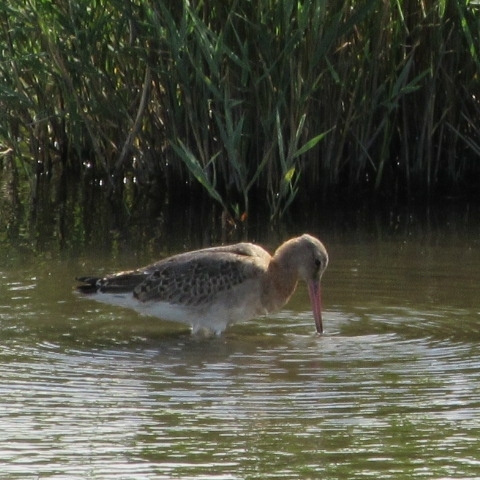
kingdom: Animalia
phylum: Chordata
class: Aves
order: Charadriiformes
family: Scolopacidae
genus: Limosa
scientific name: Limosa limosa
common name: Black-tailed godwit
